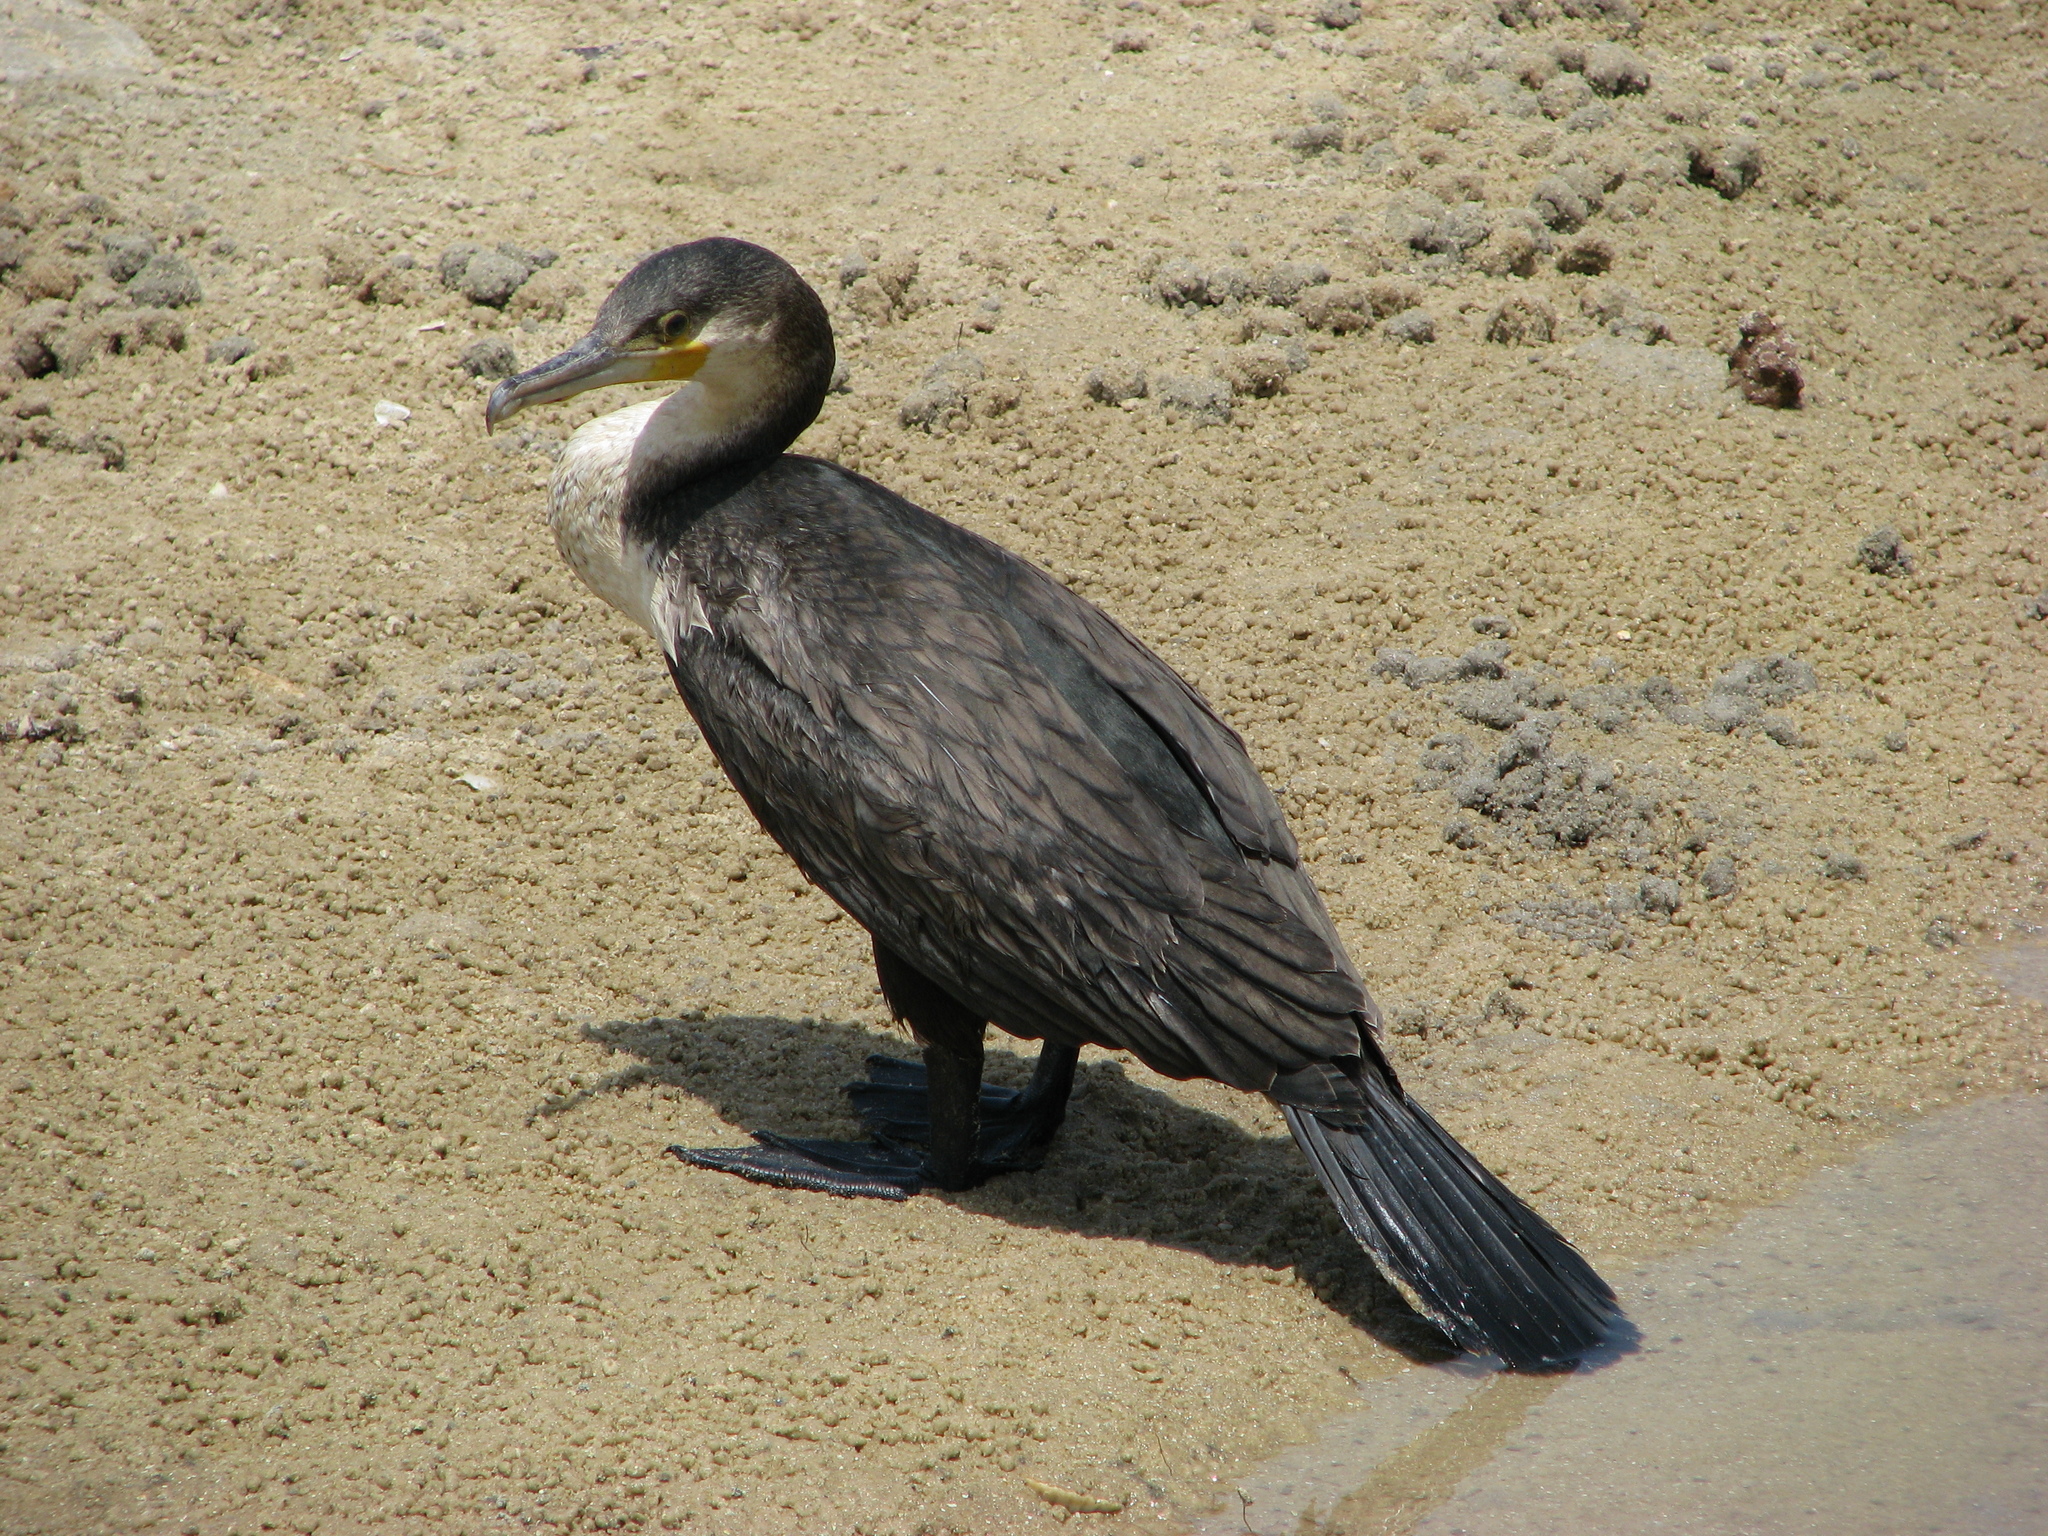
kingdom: Animalia
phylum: Chordata
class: Aves
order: Suliformes
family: Phalacrocoracidae
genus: Phalacrocorax
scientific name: Phalacrocorax carbo
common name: Great cormorant
